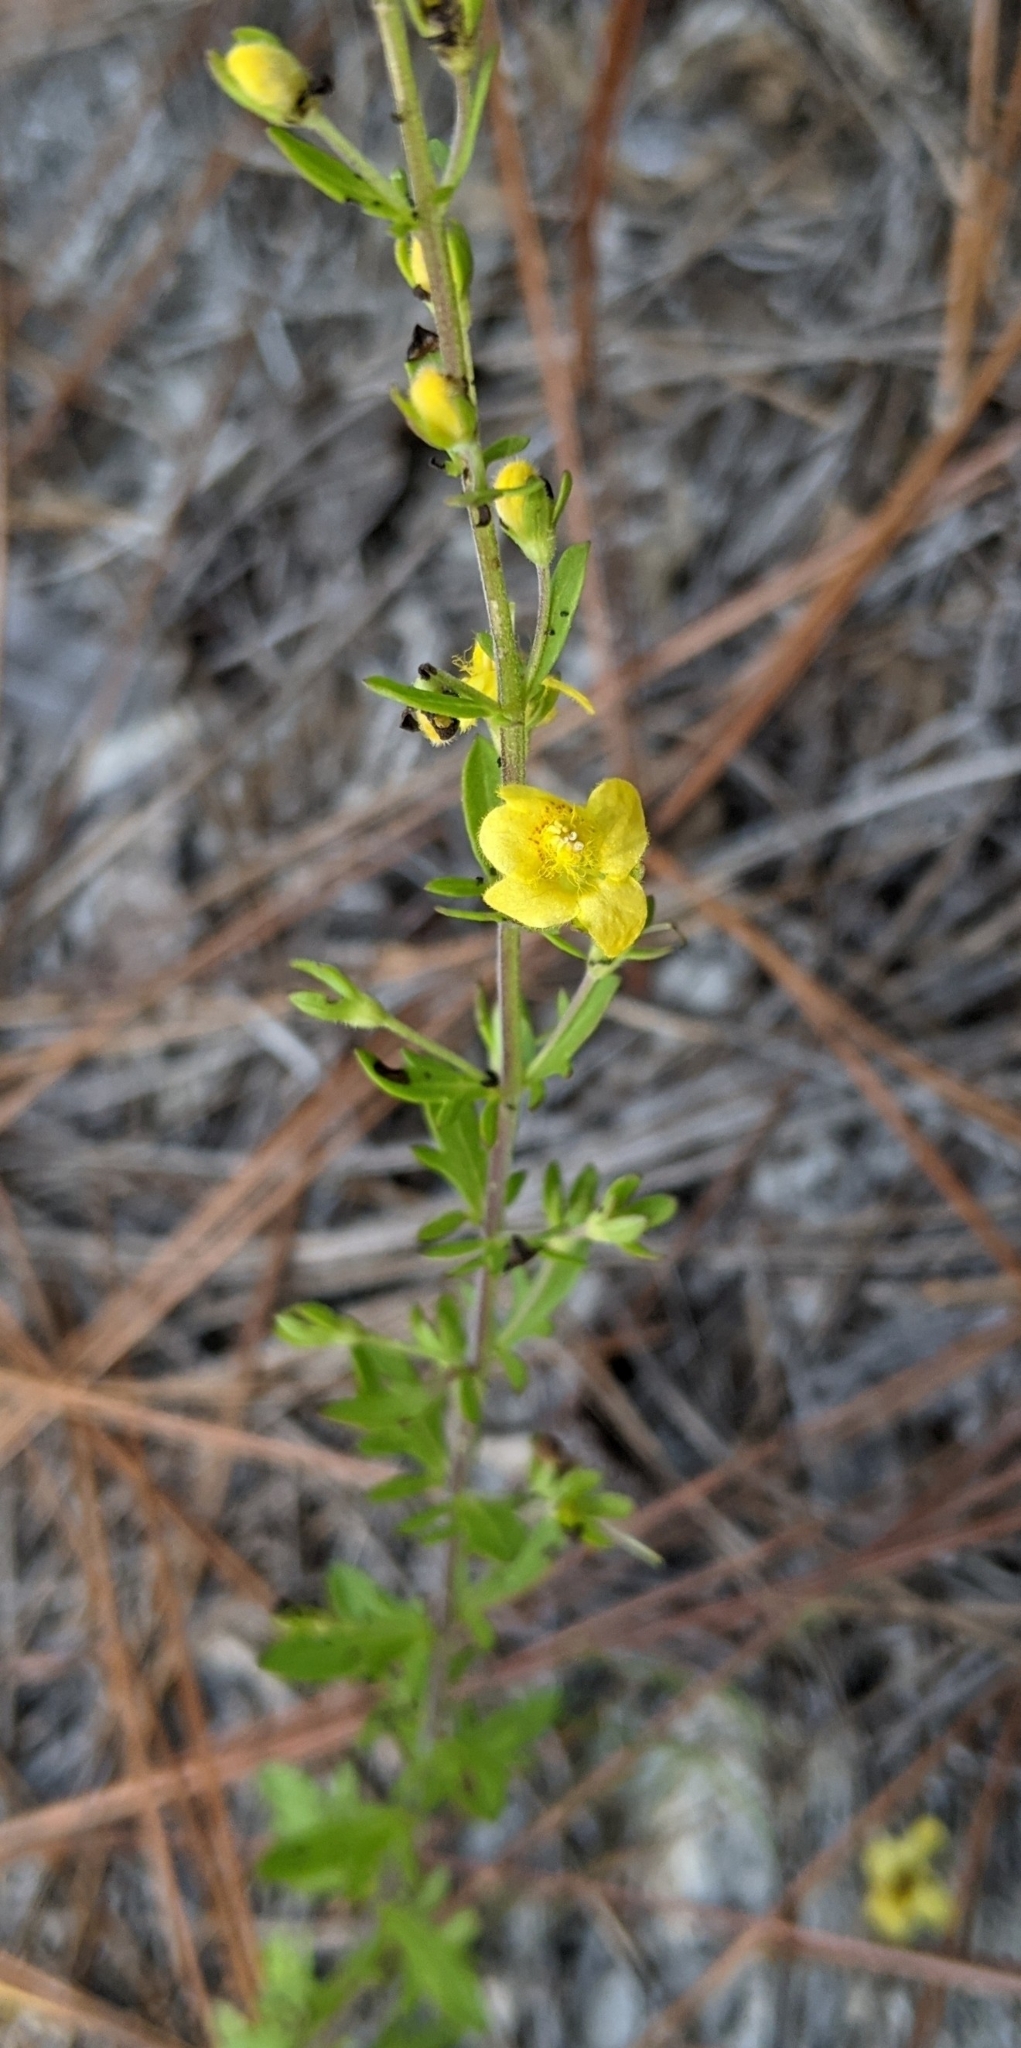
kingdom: Plantae
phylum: Tracheophyta
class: Magnoliopsida
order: Lamiales
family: Orobanchaceae
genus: Seymeria
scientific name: Seymeria pectinata
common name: Piedmont black-senna
